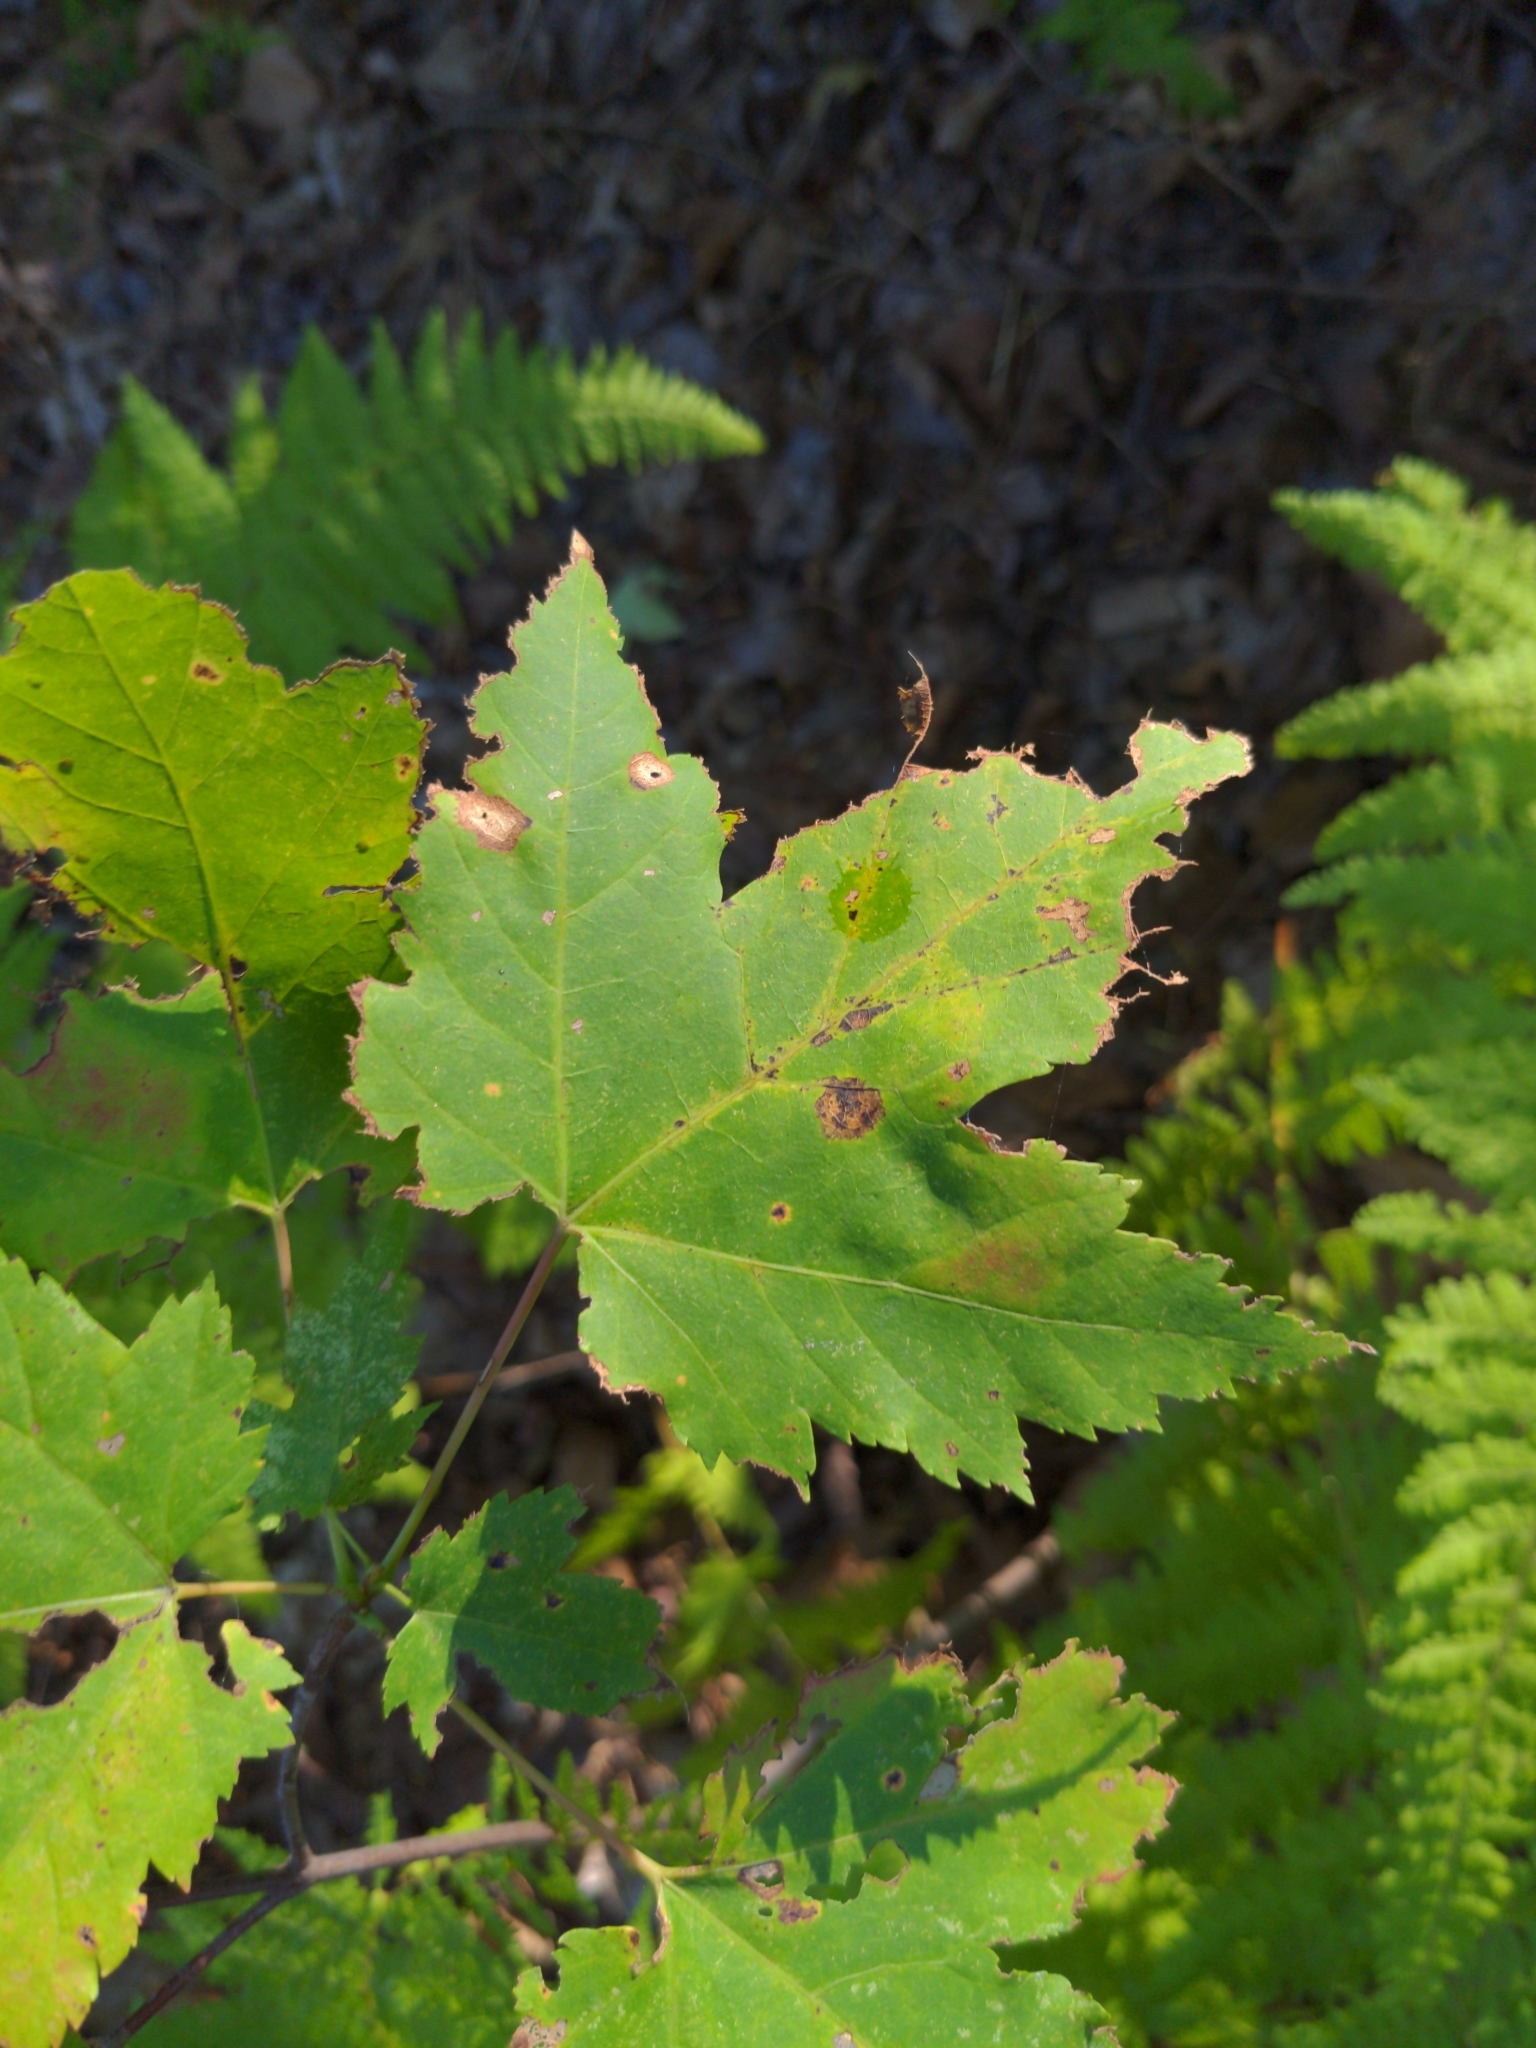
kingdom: Plantae
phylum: Tracheophyta
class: Magnoliopsida
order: Sapindales
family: Sapindaceae
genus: Acer
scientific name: Acer rubrum
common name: Red maple
